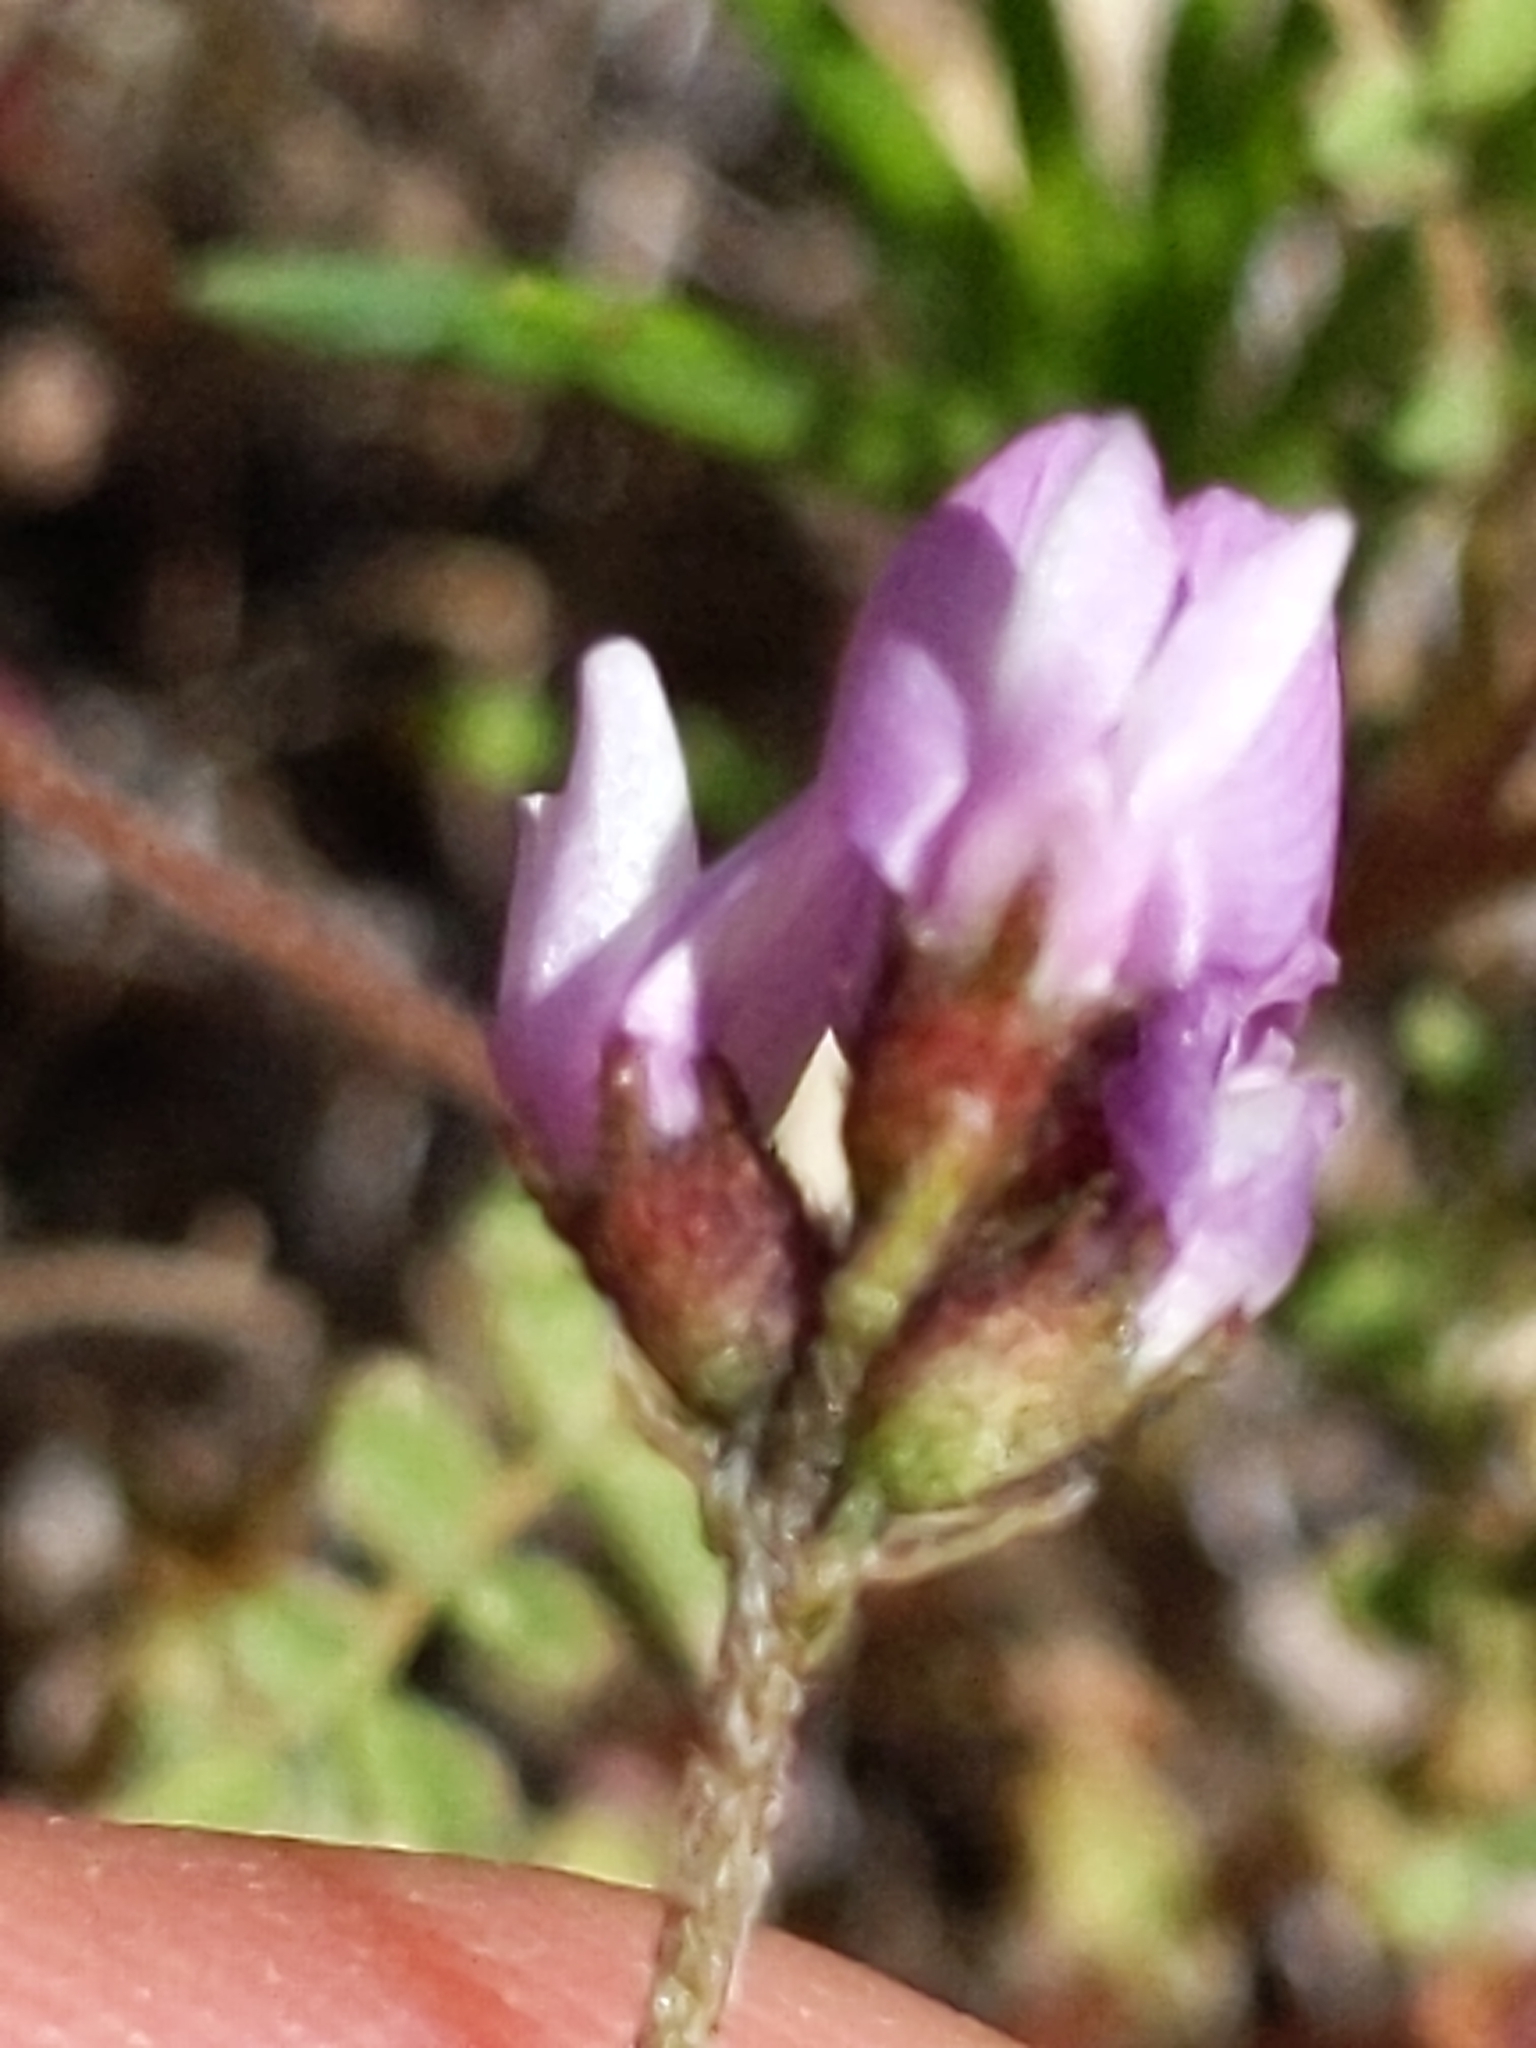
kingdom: Plantae
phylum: Tracheophyta
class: Magnoliopsida
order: Fabales
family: Fabaceae
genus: Astragalus
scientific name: Astragalus gambelianus
